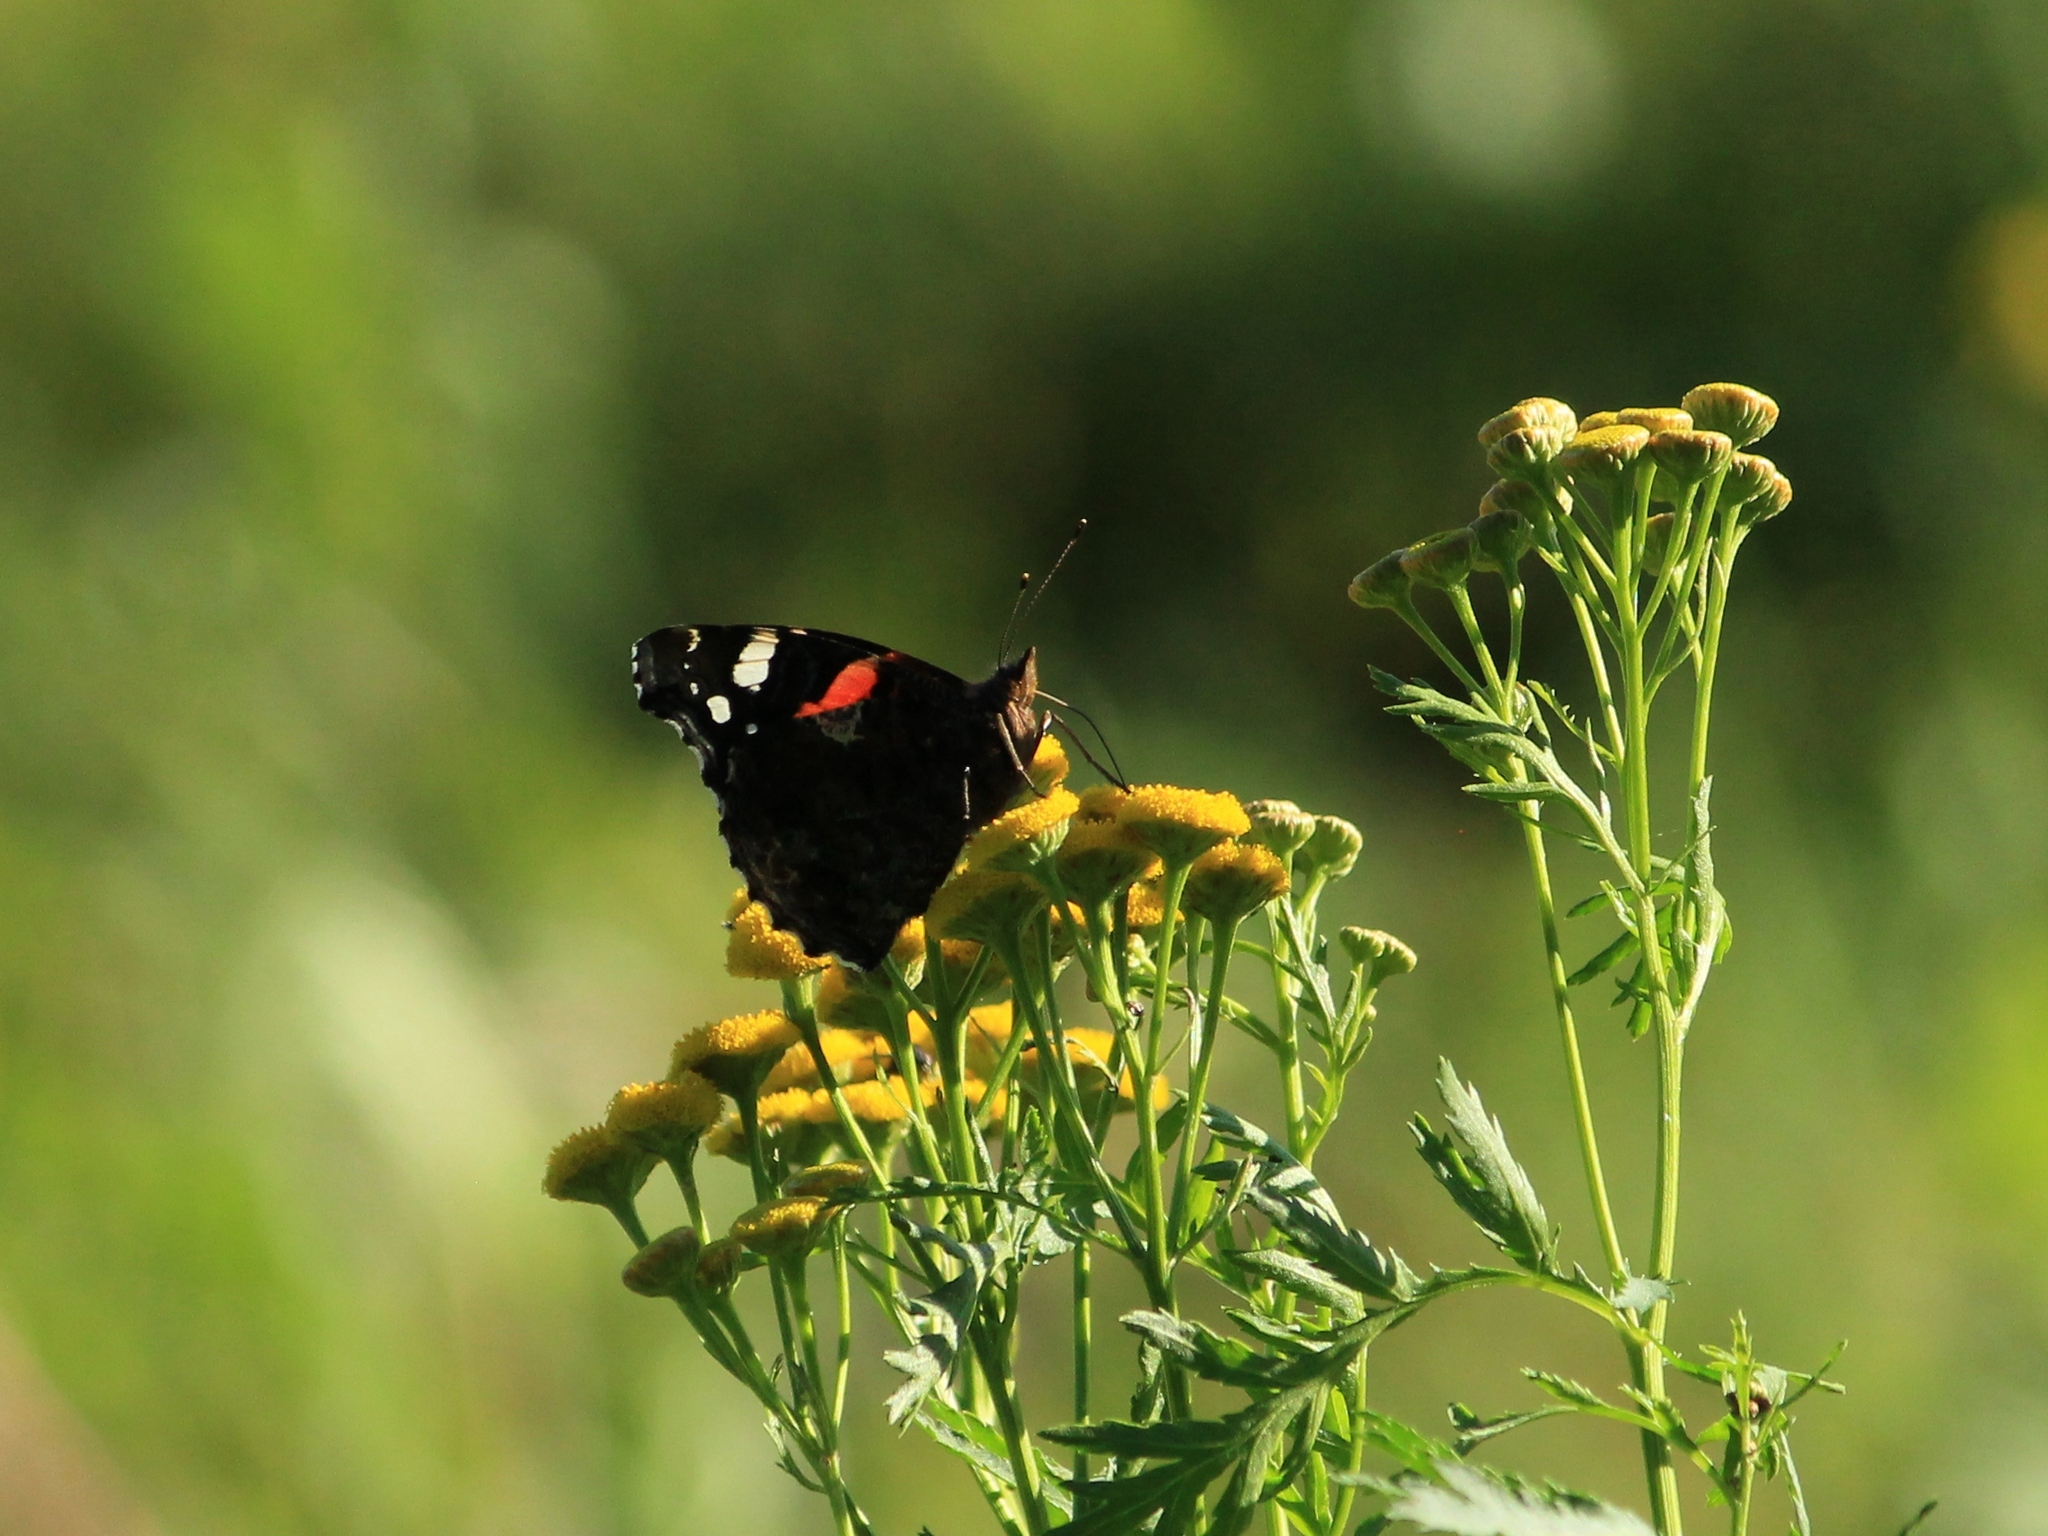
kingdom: Animalia
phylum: Arthropoda
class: Insecta
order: Lepidoptera
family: Nymphalidae
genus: Vanessa
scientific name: Vanessa atalanta
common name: Red admiral
